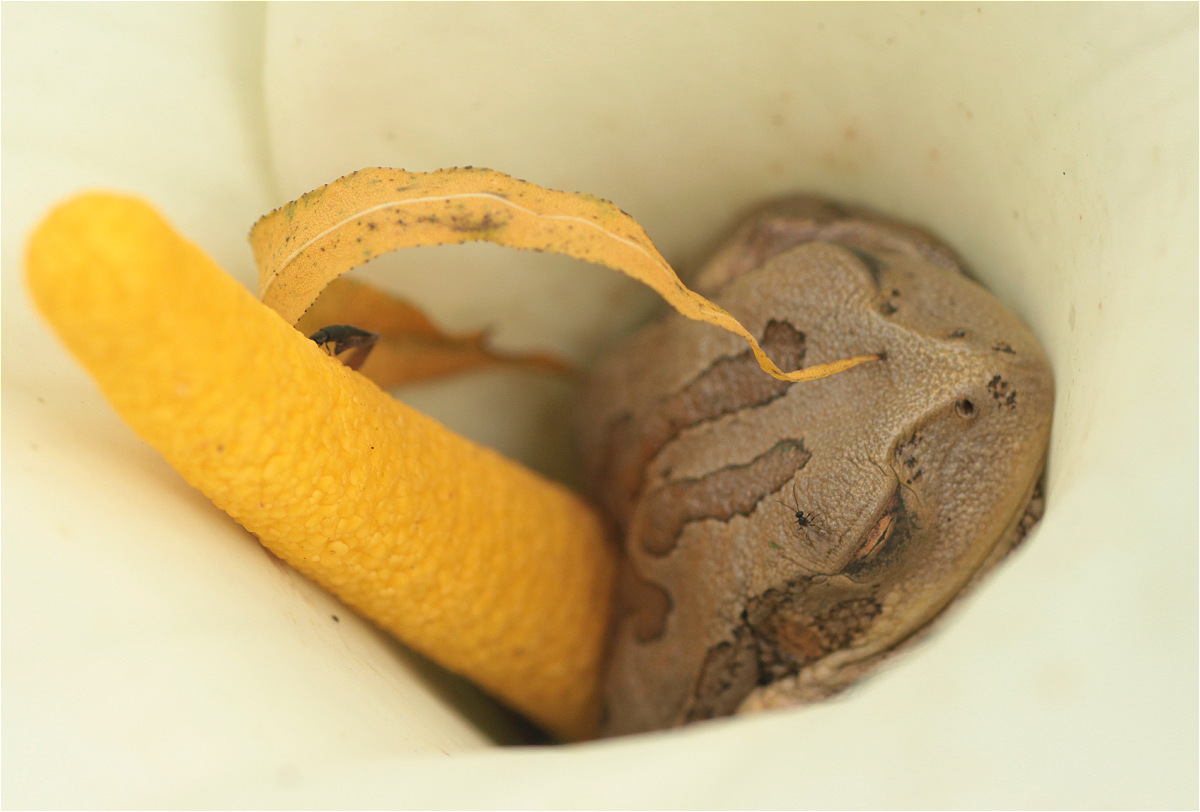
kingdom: Animalia
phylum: Chordata
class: Amphibia
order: Anura
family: Hemiphractidae
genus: Gastrotheca
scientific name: Gastrotheca cuencana
